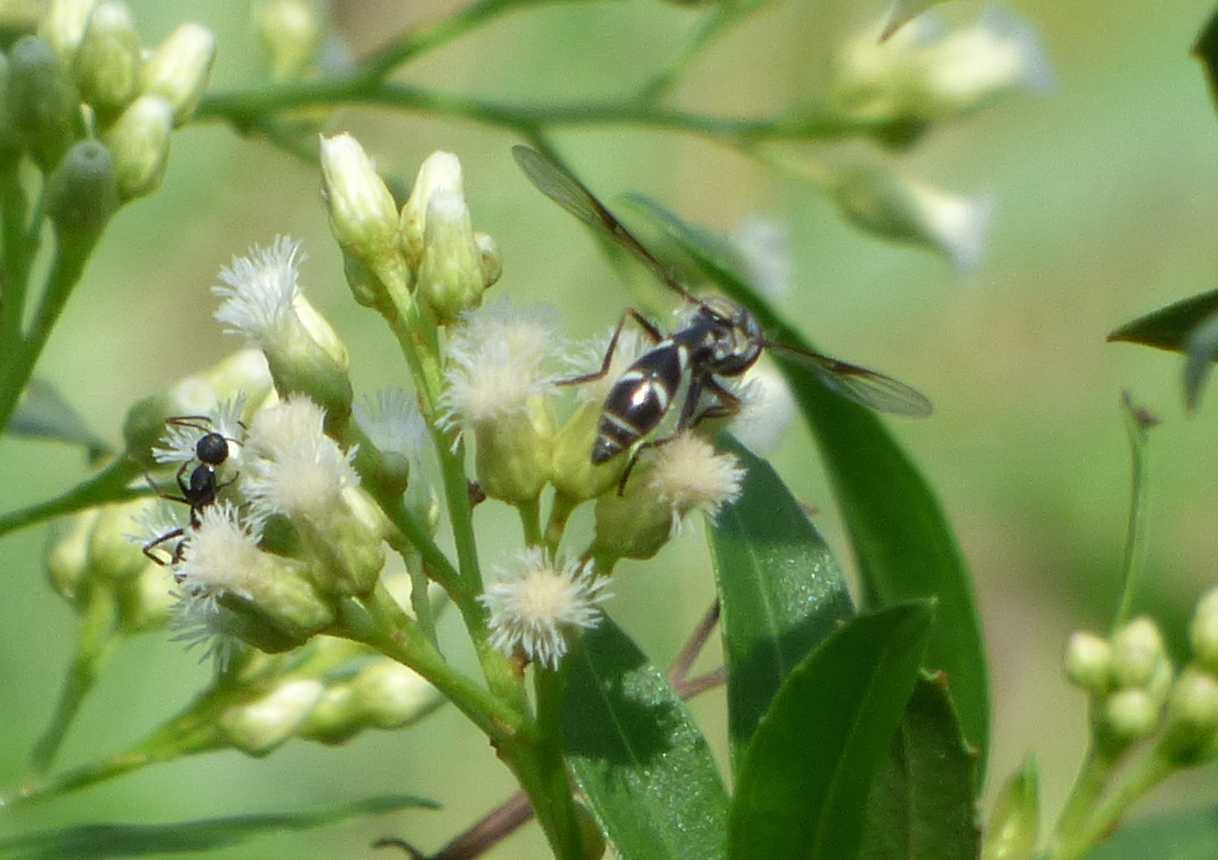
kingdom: Animalia
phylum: Arthropoda
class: Insecta
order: Diptera
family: Syrphidae
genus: Dioprosopa
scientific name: Dioprosopa clavatus
